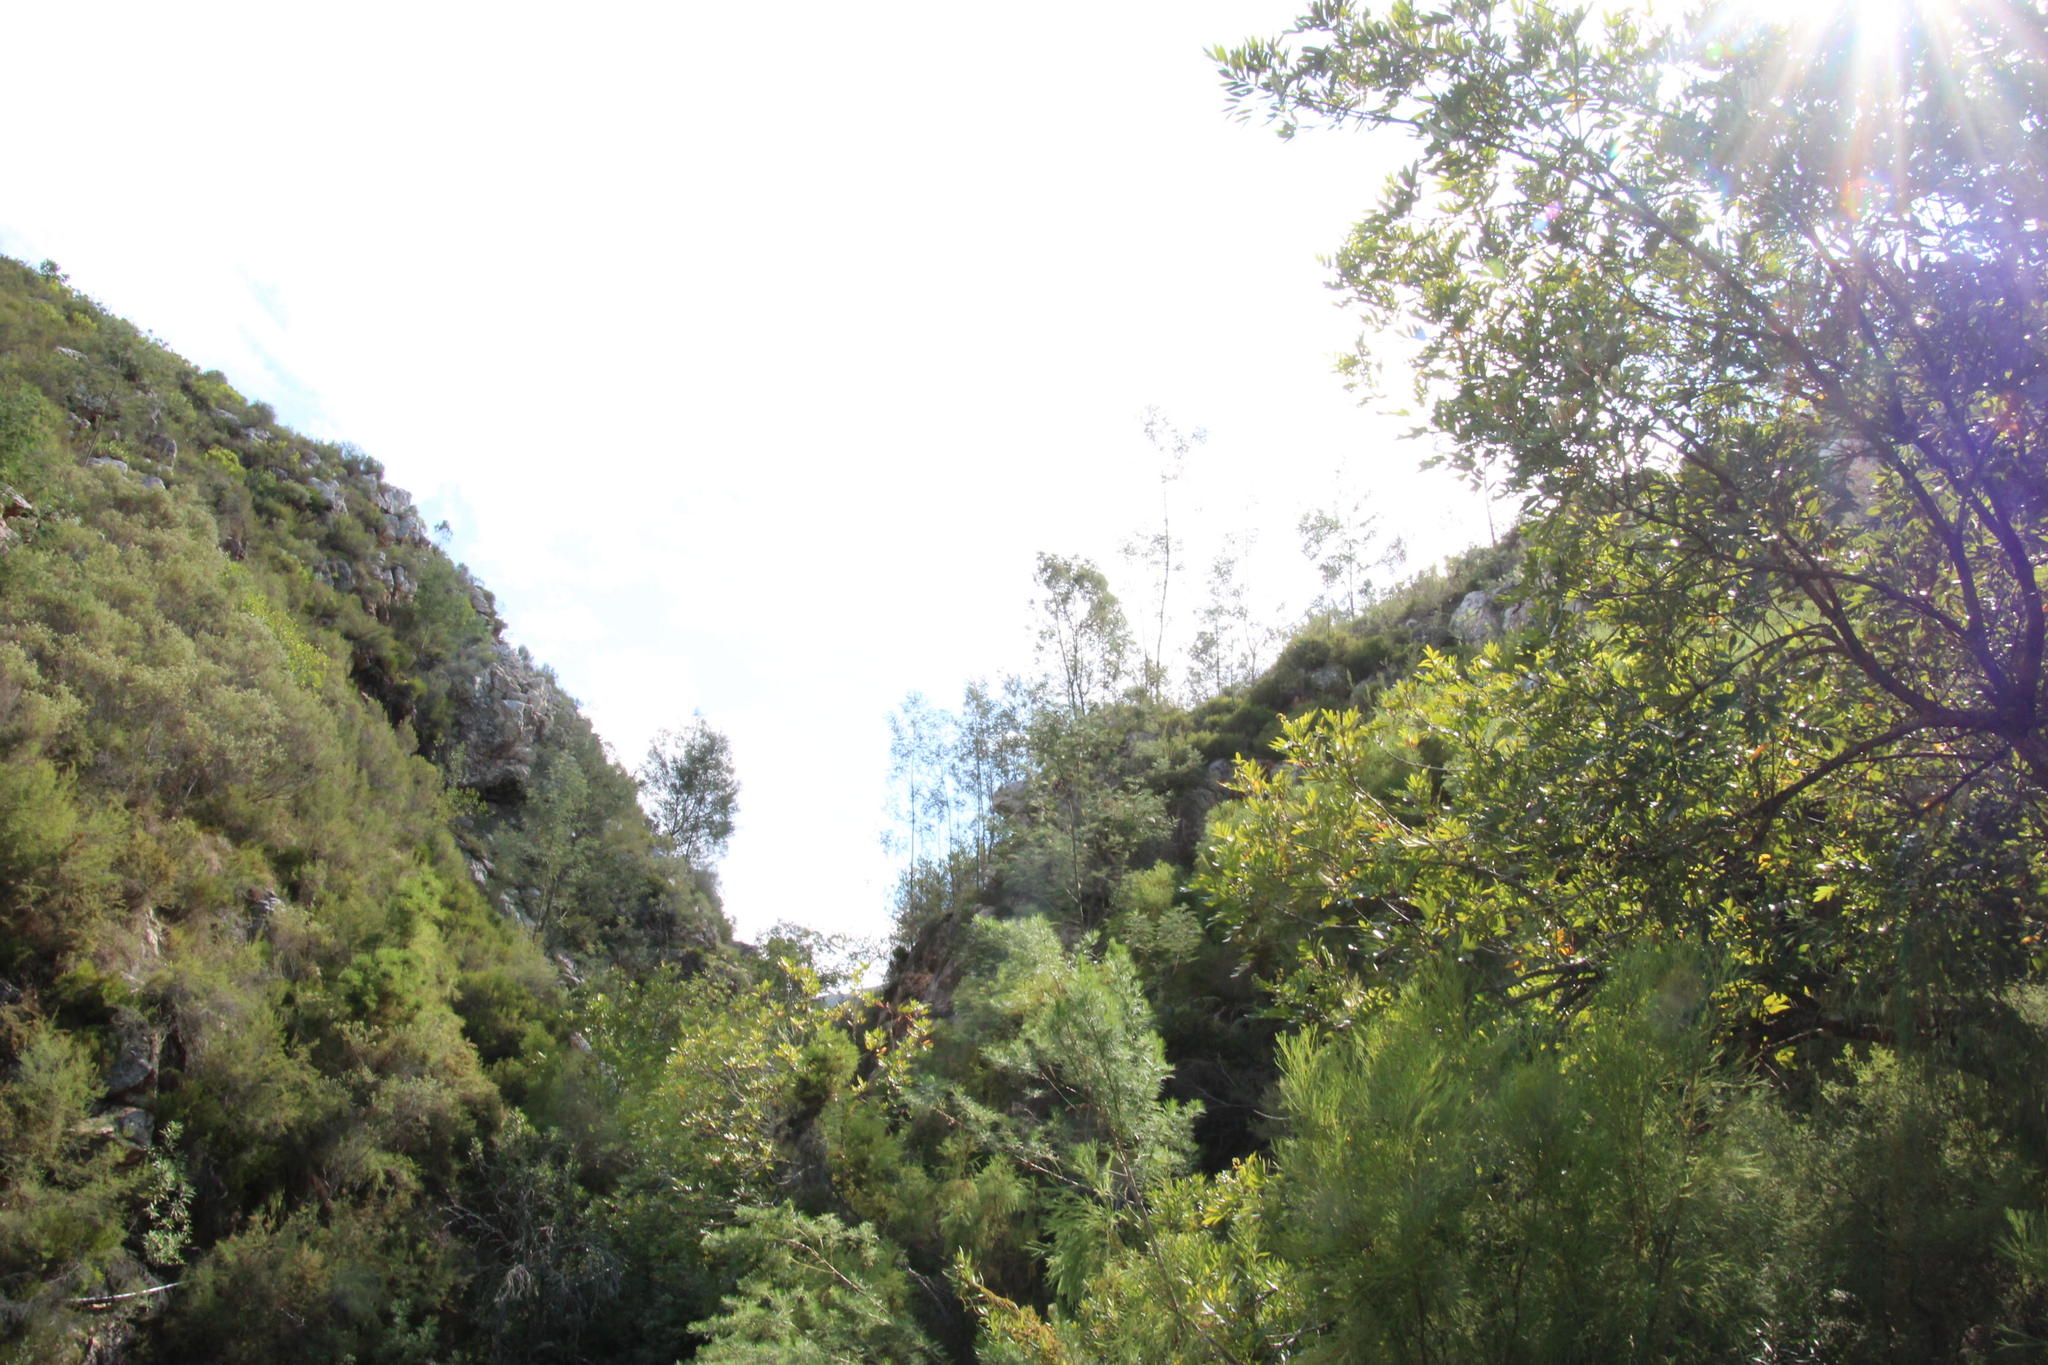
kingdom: Plantae
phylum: Tracheophyta
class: Magnoliopsida
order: Fabales
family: Fabaceae
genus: Acacia
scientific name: Acacia mearnsii
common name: Black wattle
